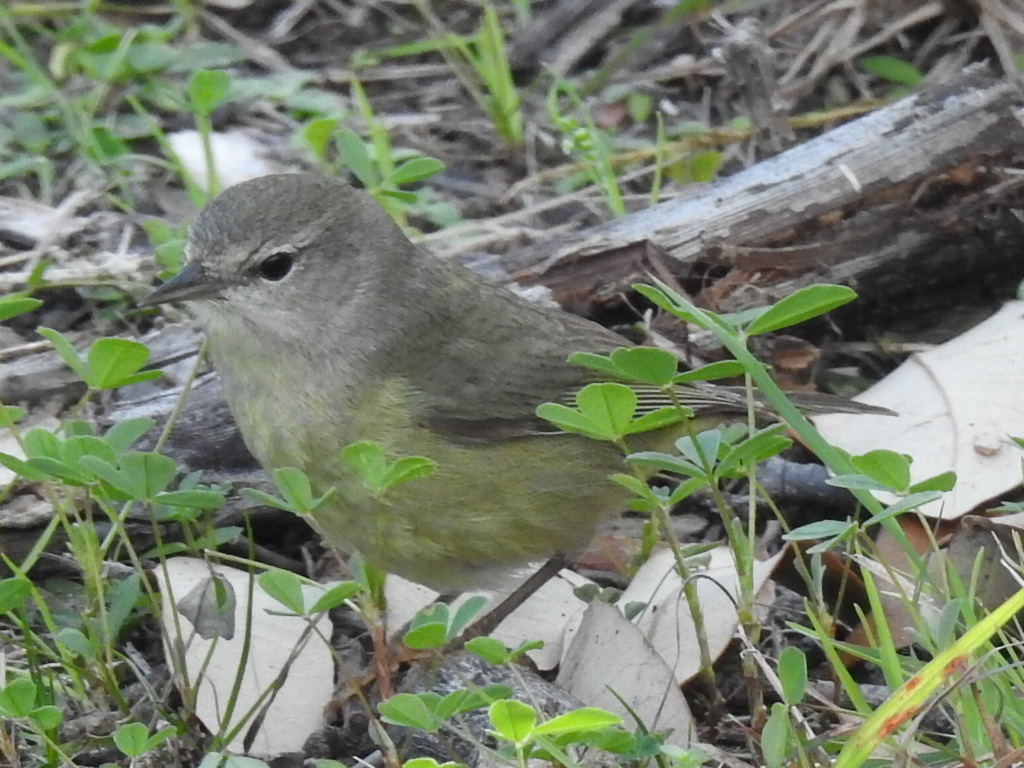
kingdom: Animalia
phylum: Chordata
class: Aves
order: Passeriformes
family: Parulidae
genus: Leiothlypis
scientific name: Leiothlypis celata
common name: Orange-crowned warbler
